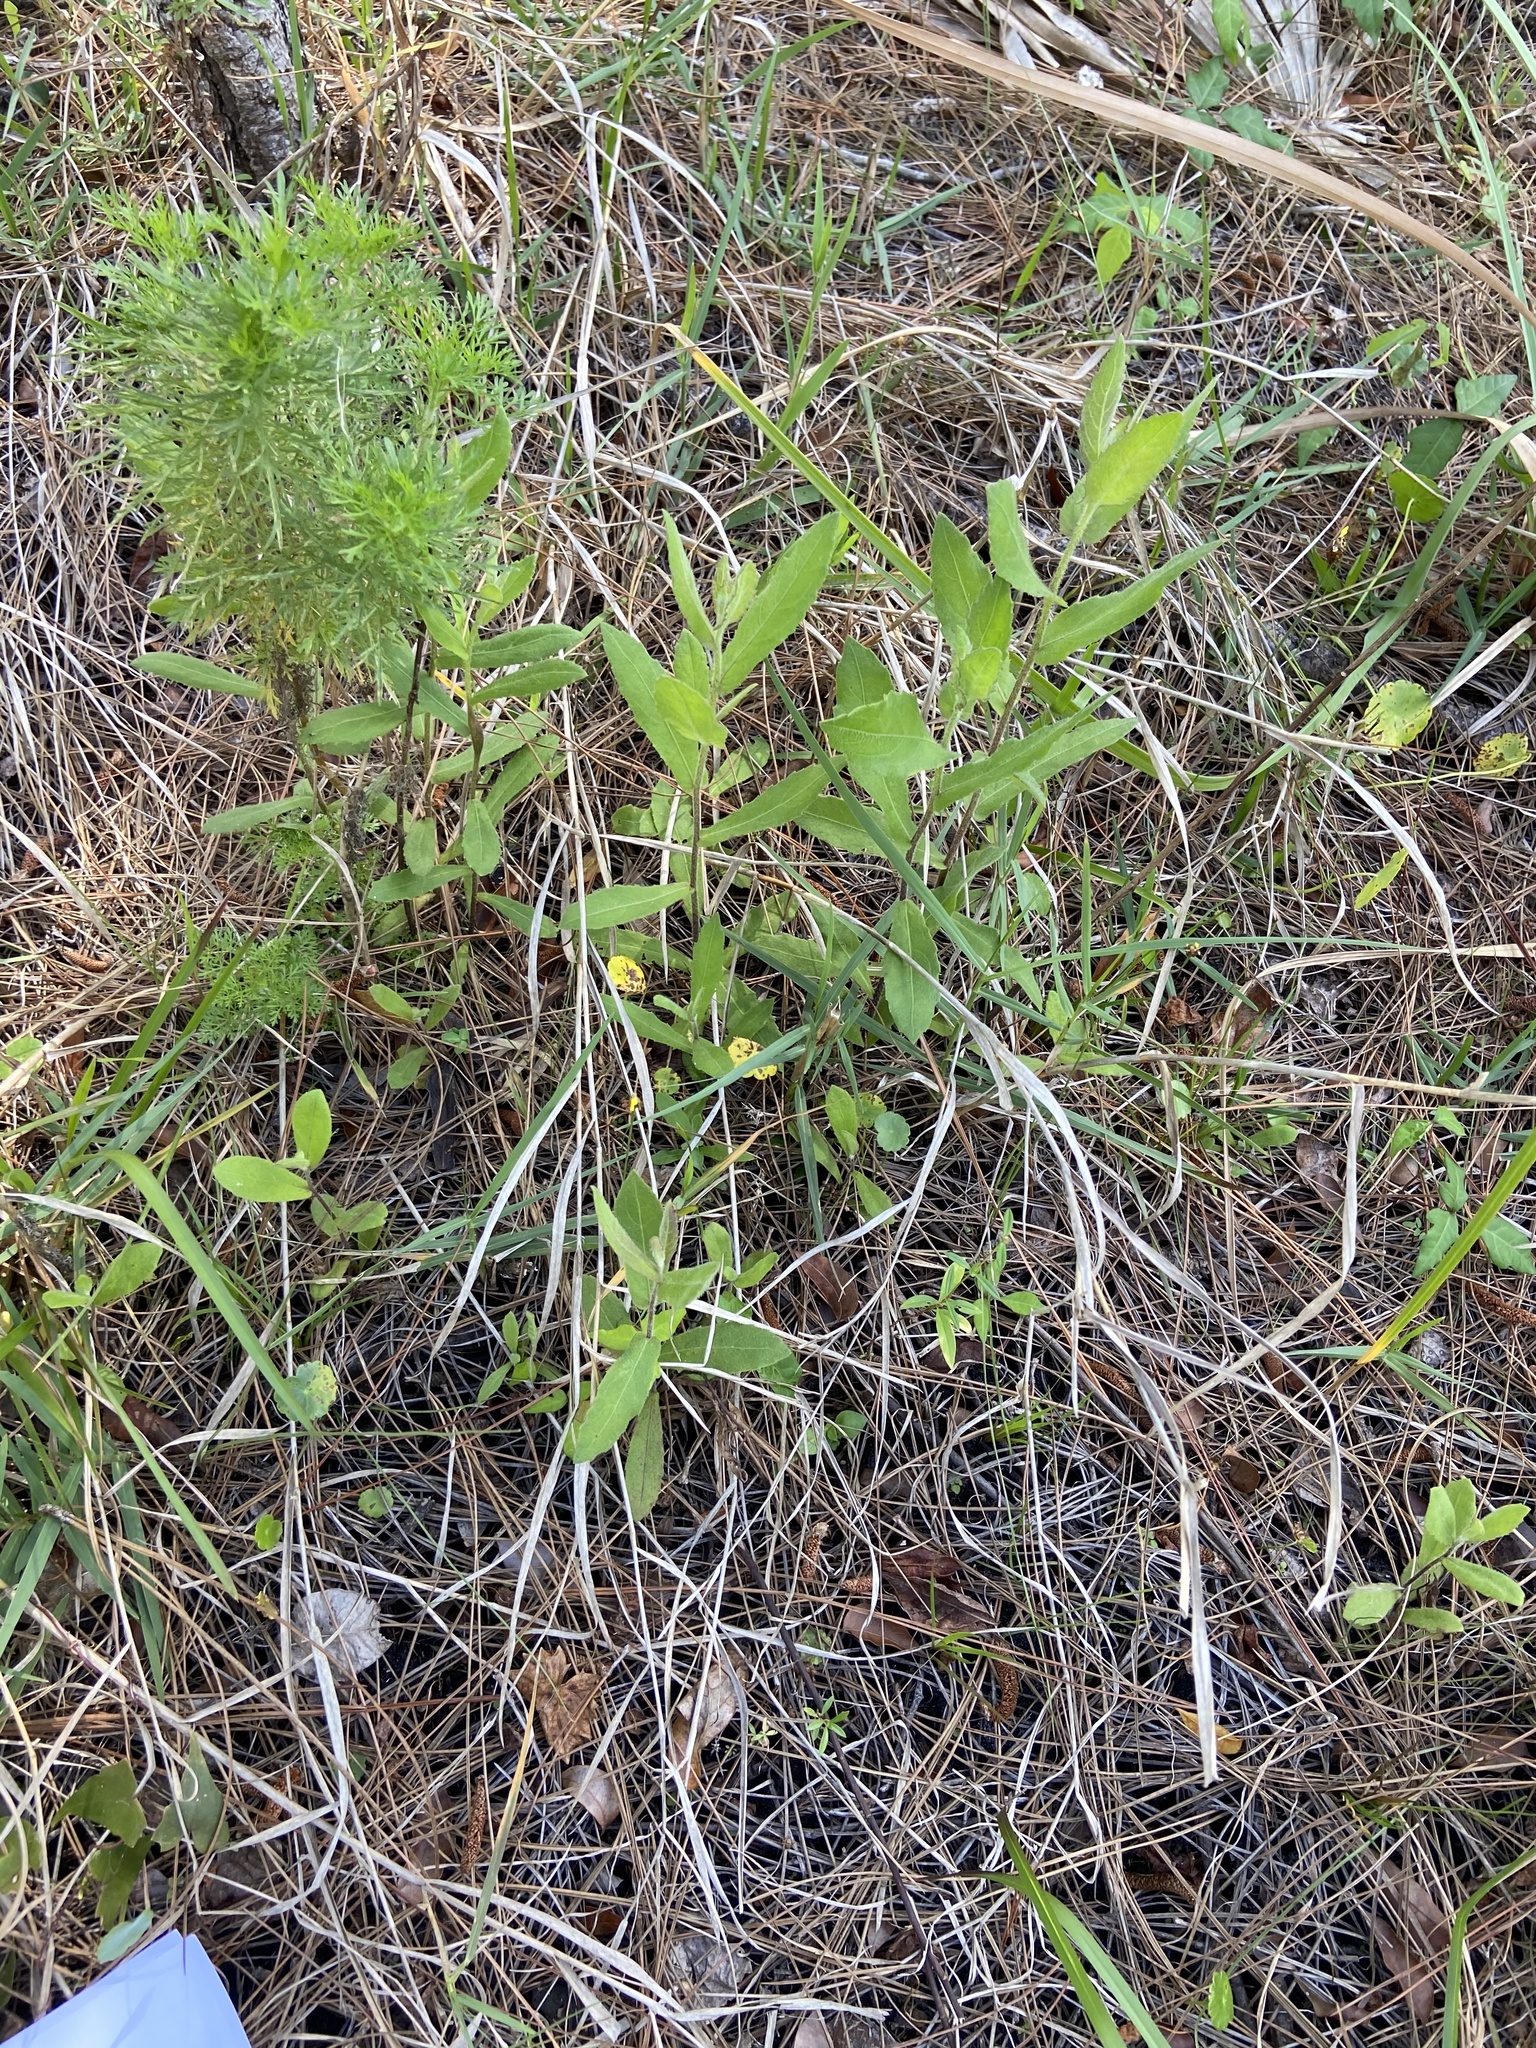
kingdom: Plantae
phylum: Tracheophyta
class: Liliopsida
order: Poales
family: Xyridaceae
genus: Xyris
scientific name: Xyris jupicai
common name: Richard's yelloweyed grass
